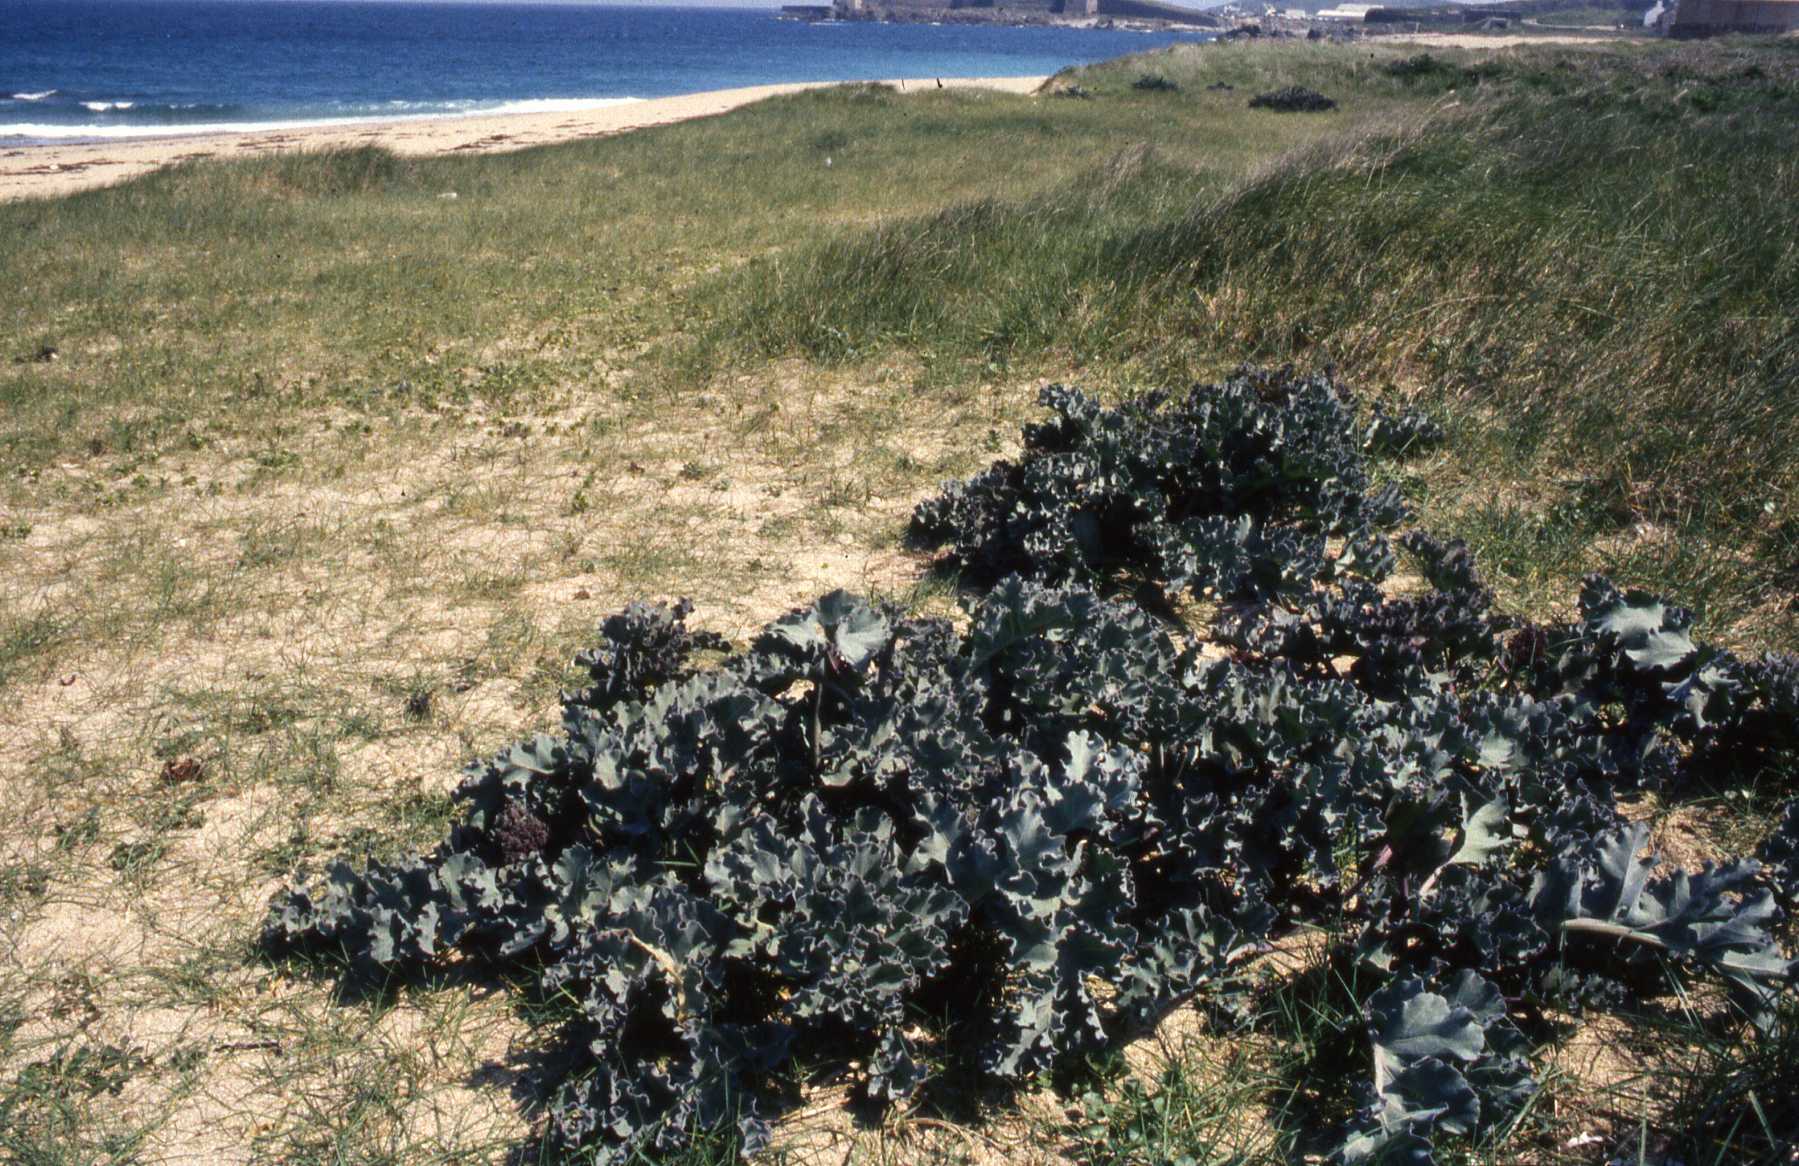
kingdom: Plantae
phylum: Tracheophyta
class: Magnoliopsida
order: Brassicales
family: Brassicaceae
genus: Crambe
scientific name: Crambe maritima
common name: Sea-kale
